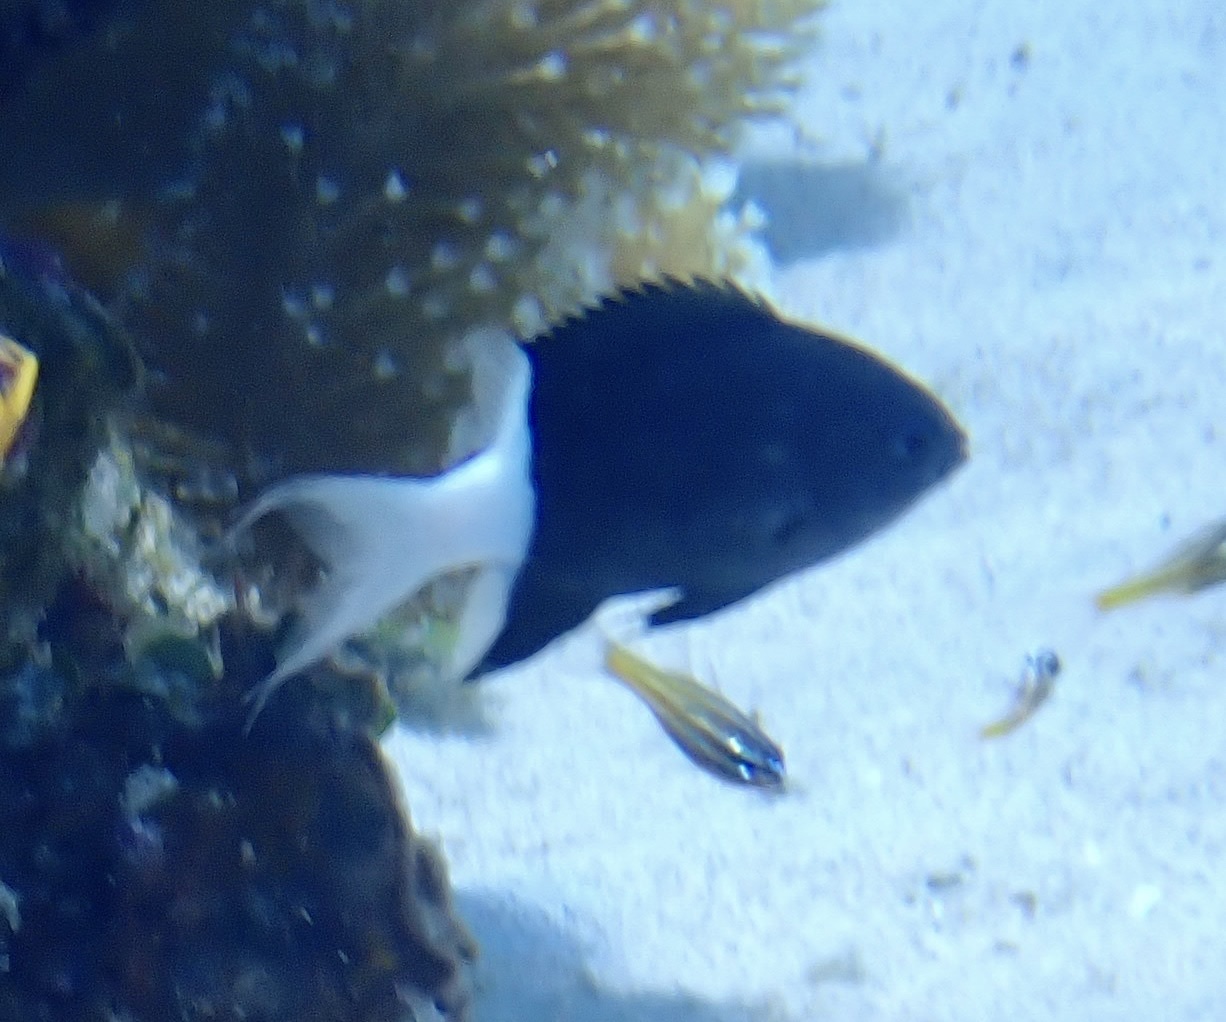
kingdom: Animalia
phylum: Chordata
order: Perciformes
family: Pomacentridae
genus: Pycnochromis
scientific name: Pycnochromis margaritifer
